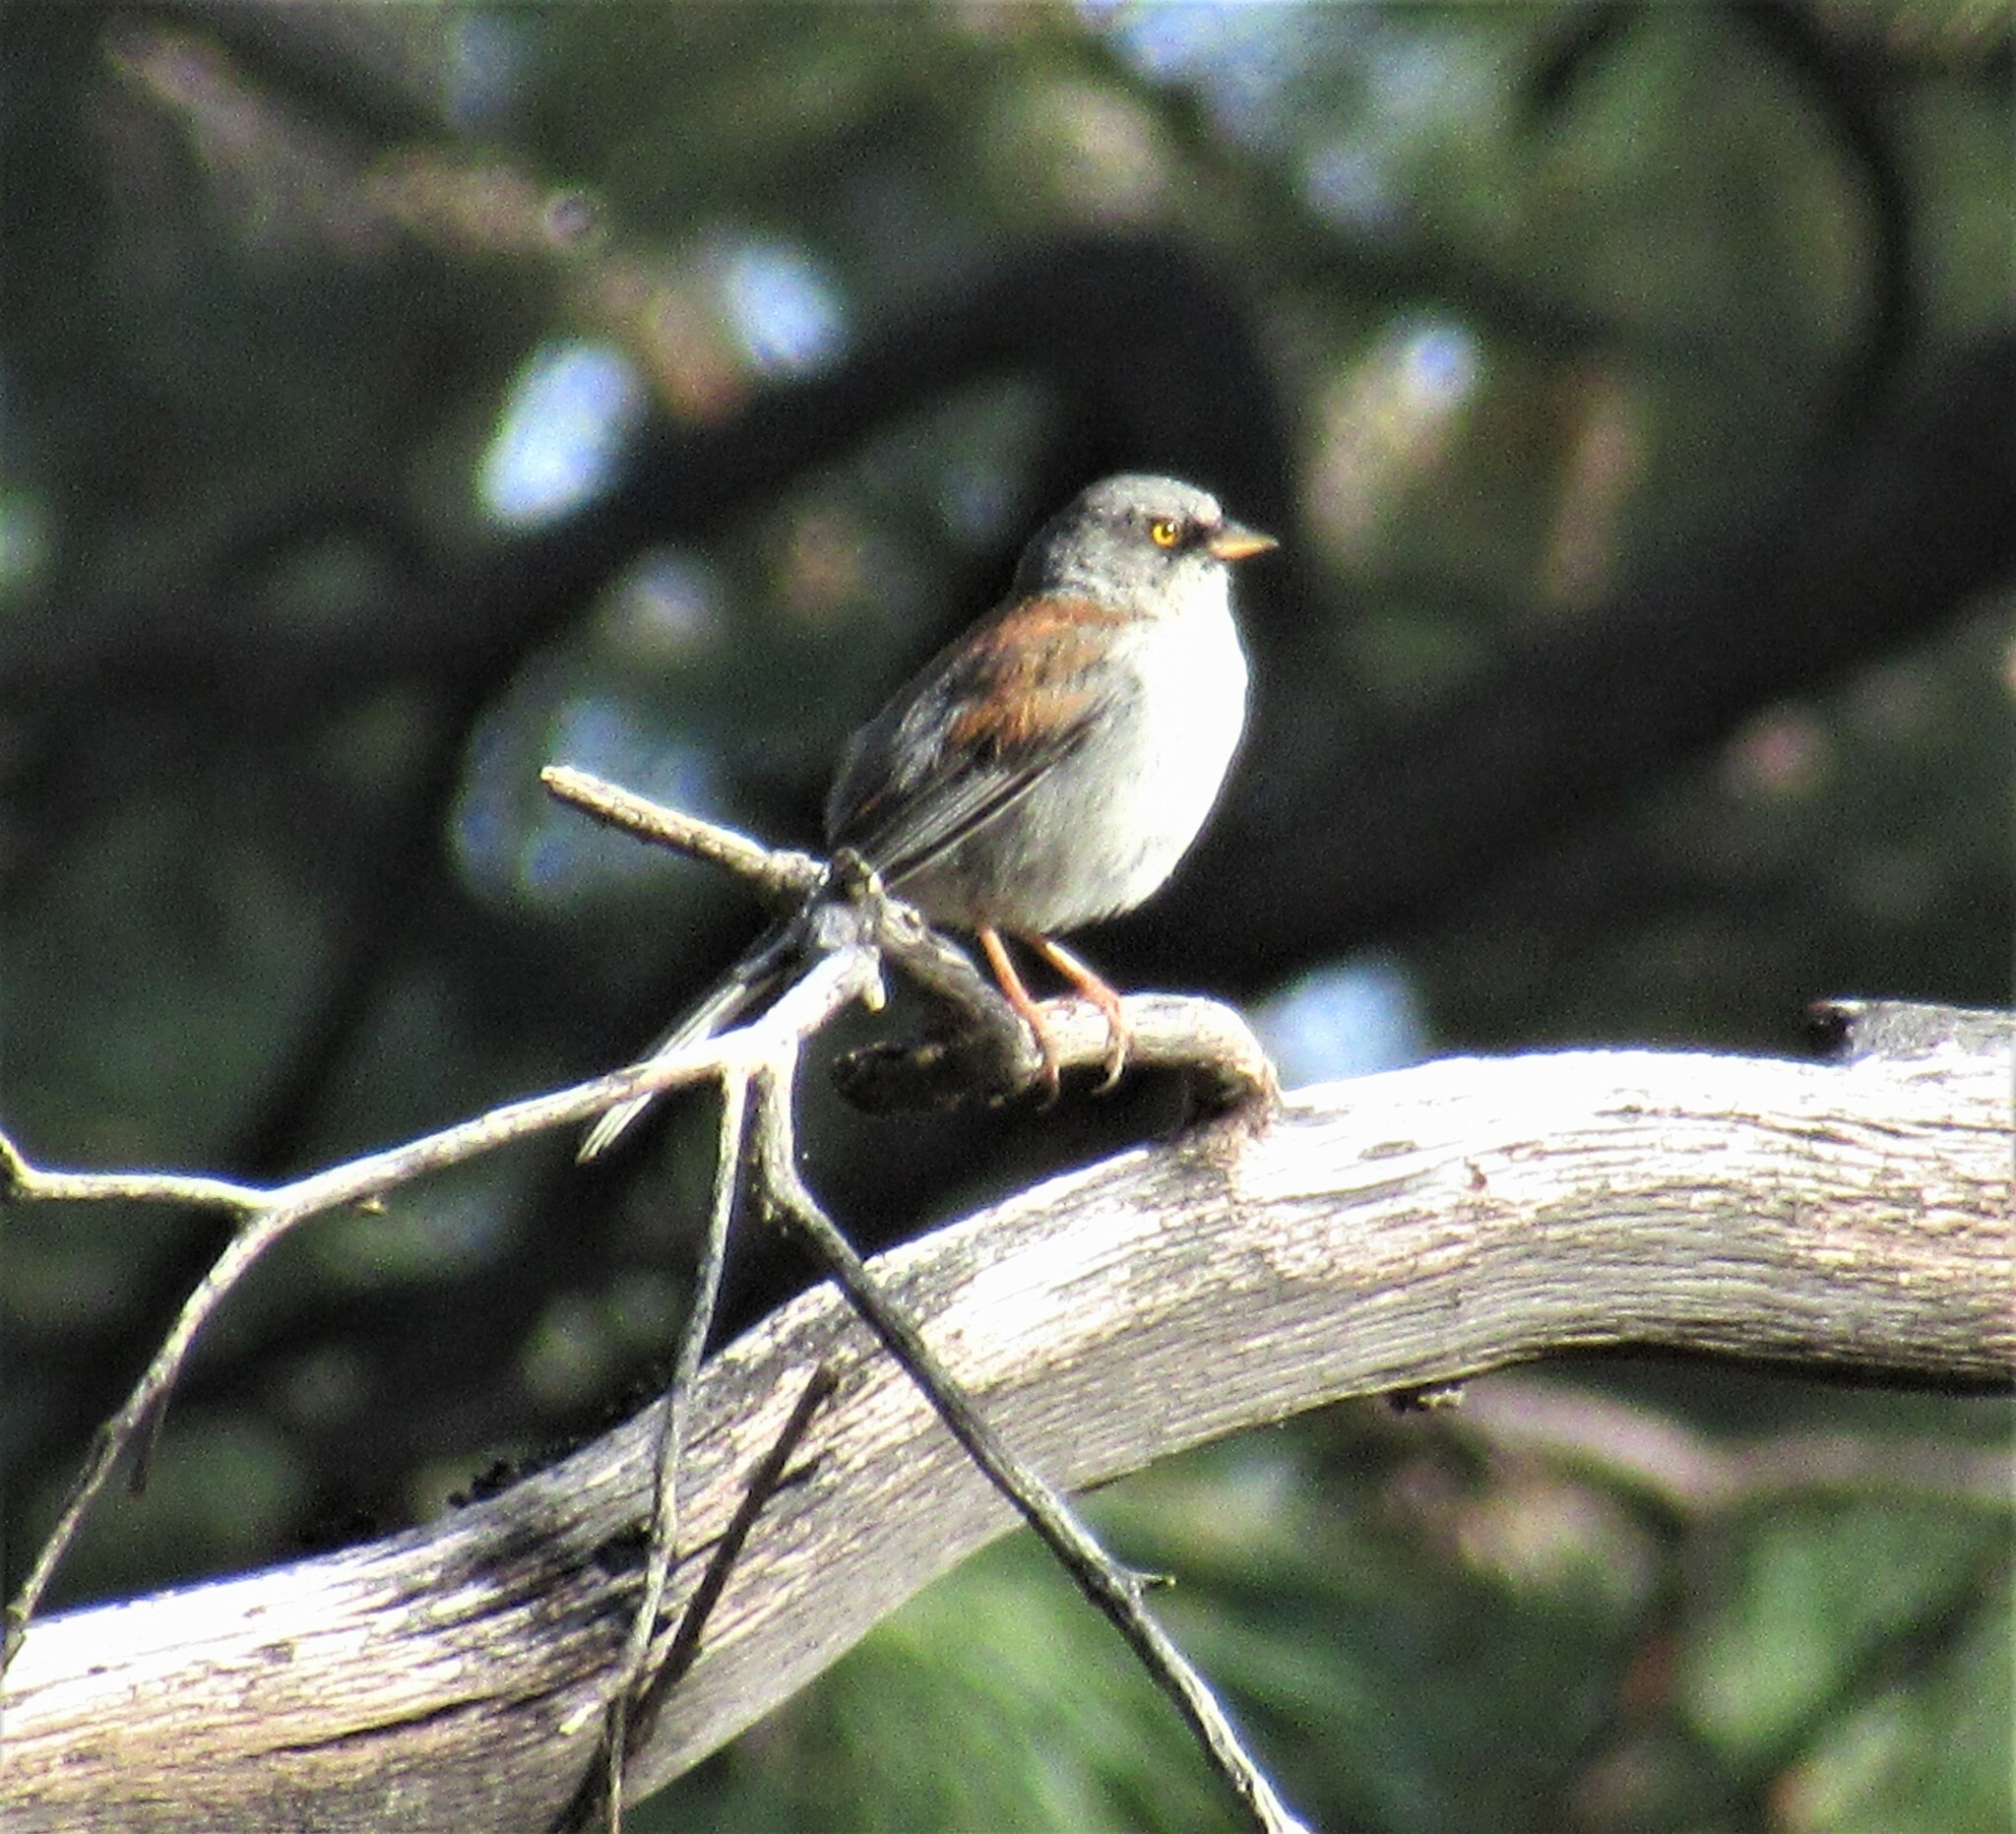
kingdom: Animalia
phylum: Chordata
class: Aves
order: Passeriformes
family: Passerellidae
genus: Junco
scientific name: Junco phaeonotus
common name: Yellow-eyed junco
